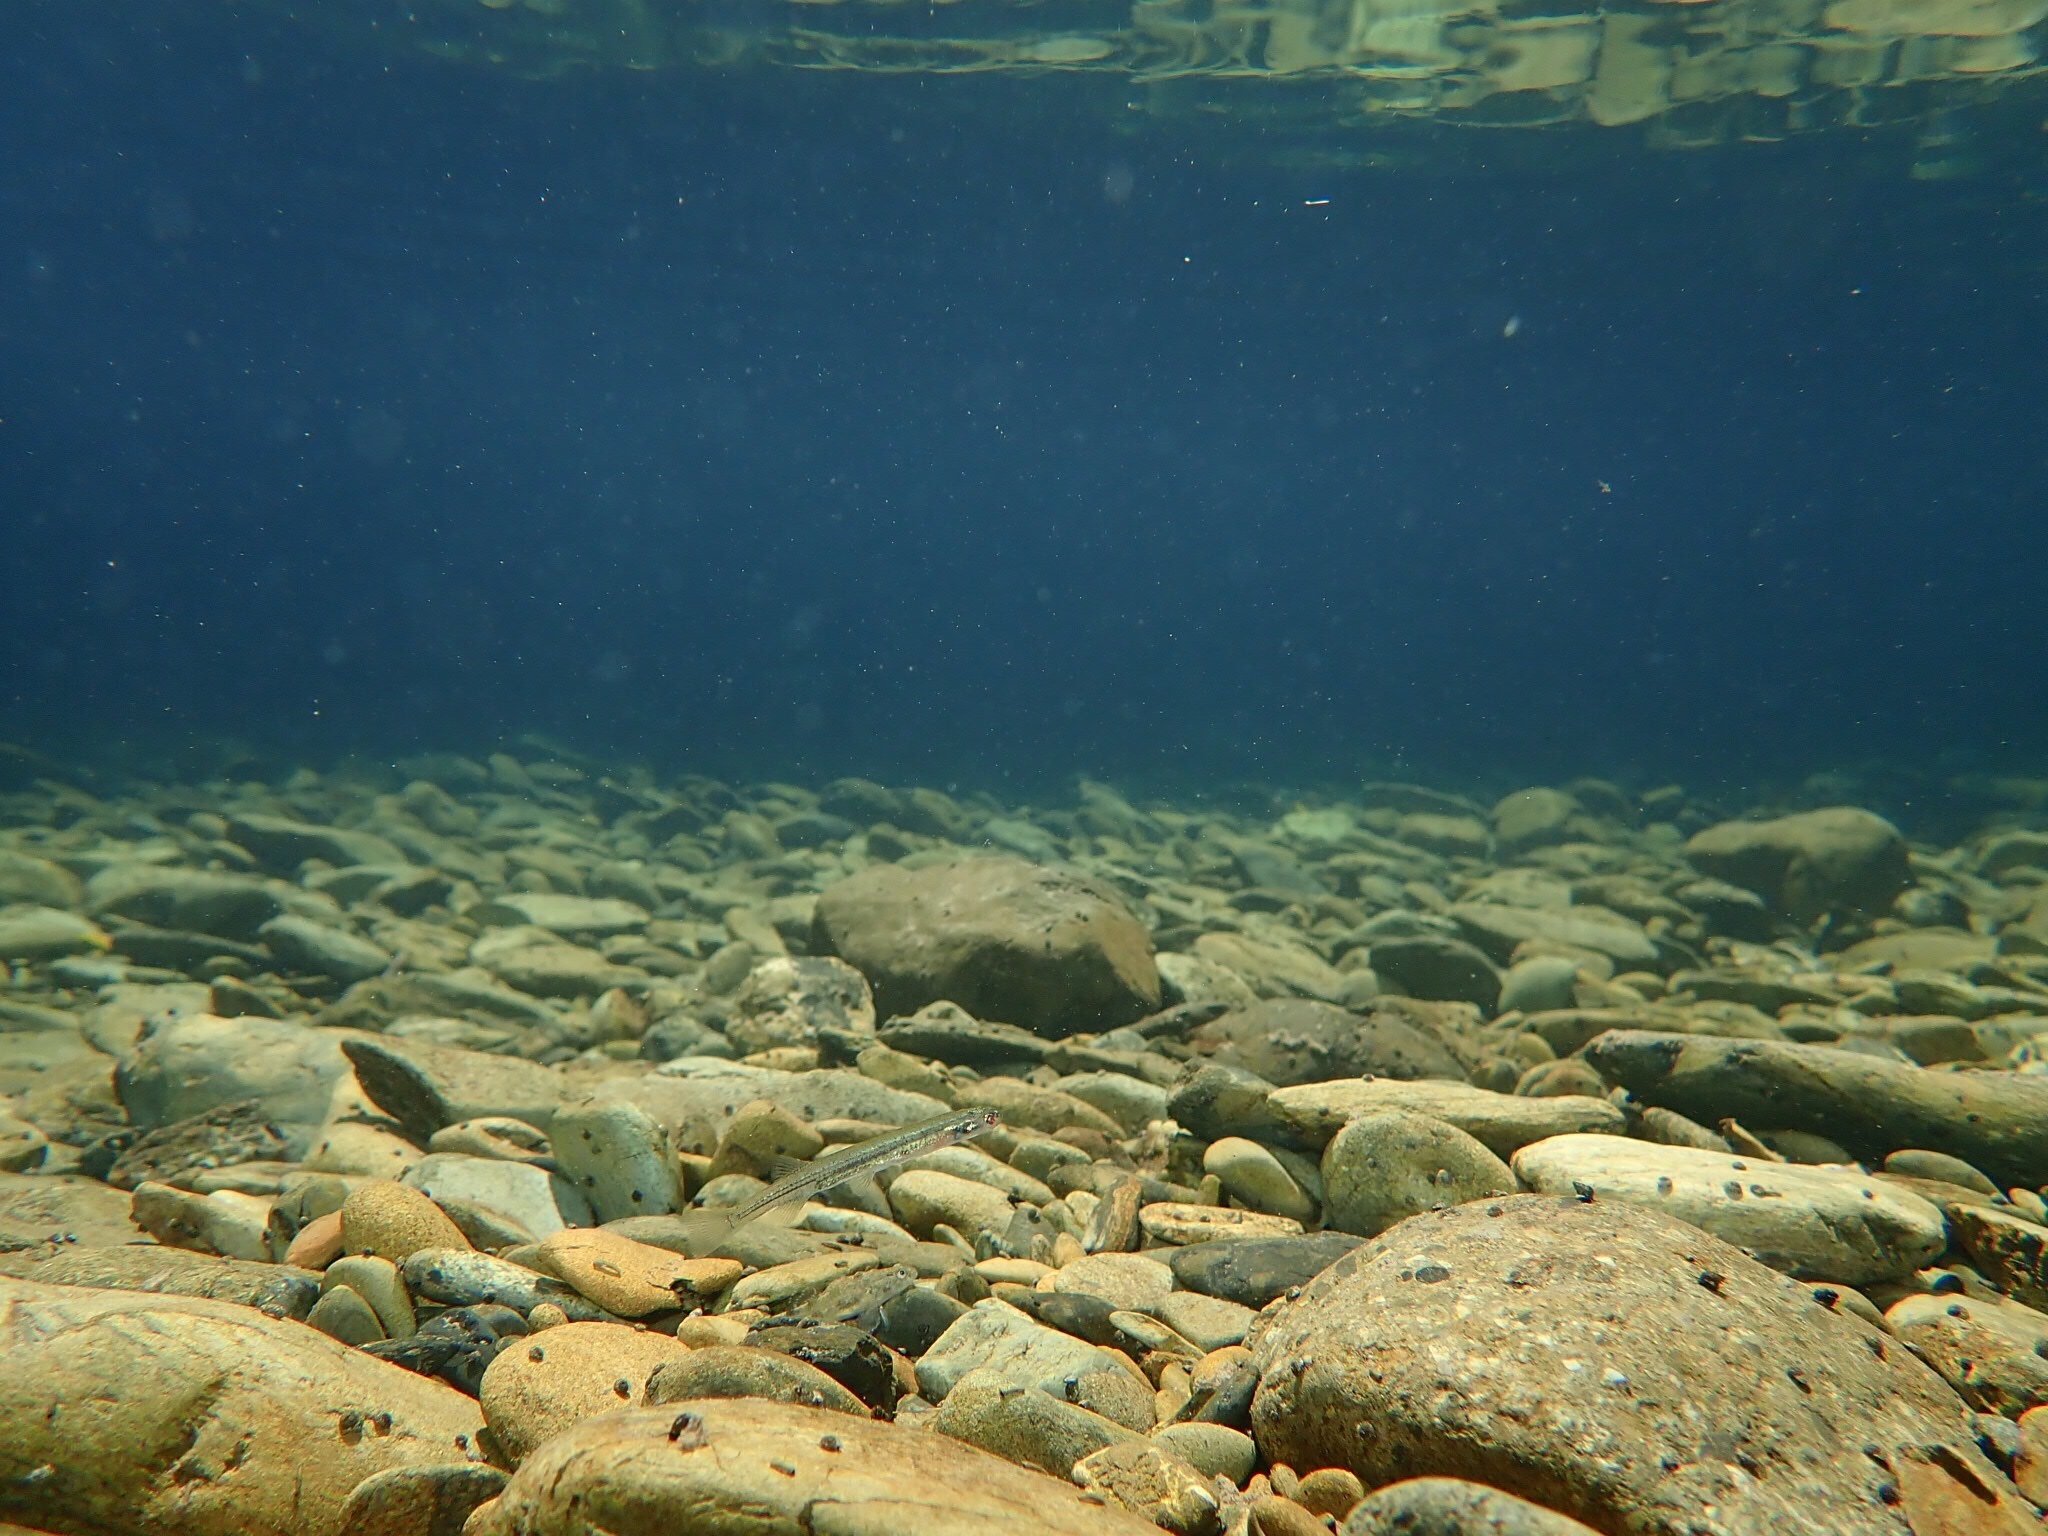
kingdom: Animalia
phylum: Chordata
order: Osmeriformes
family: Galaxiidae
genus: Galaxias
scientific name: Galaxias maculatus
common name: Common galaxias
